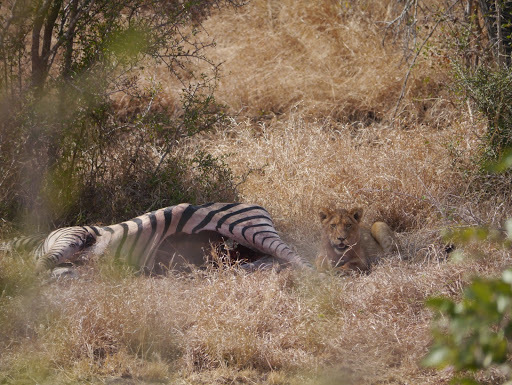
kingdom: Animalia
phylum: Chordata
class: Mammalia
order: Carnivora
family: Felidae
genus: Panthera
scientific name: Panthera leo
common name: Lion
